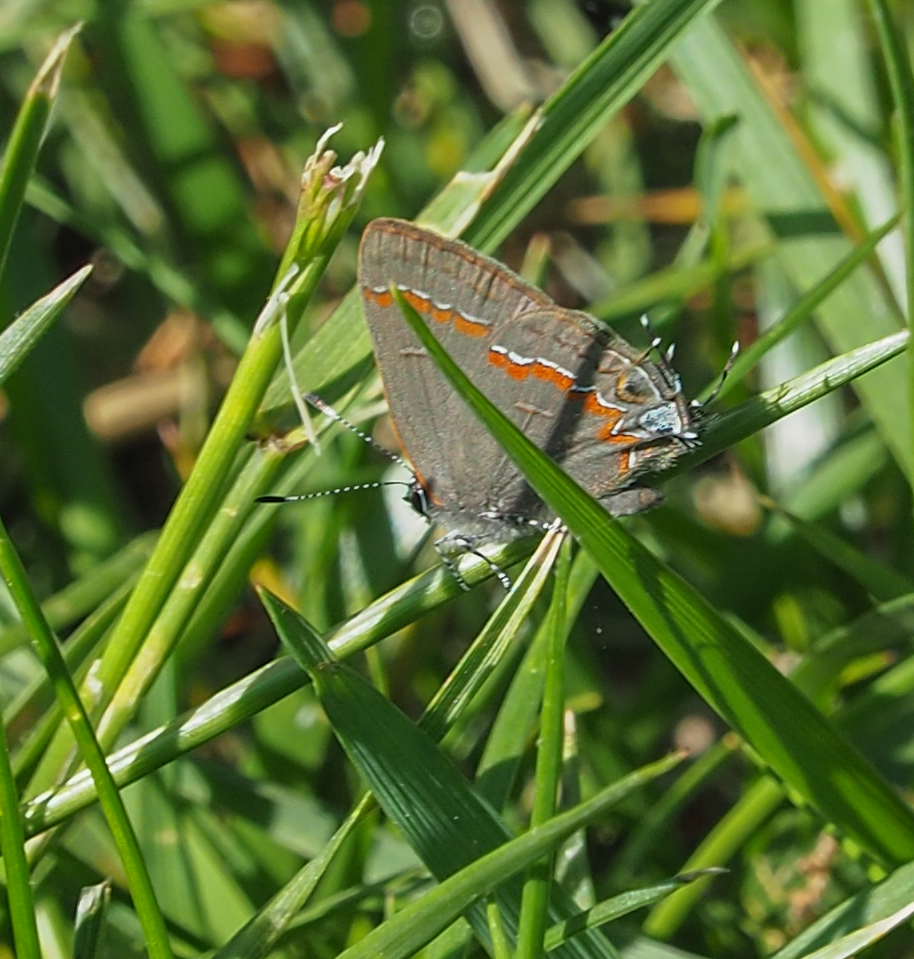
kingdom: Animalia
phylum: Arthropoda
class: Insecta
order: Lepidoptera
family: Lycaenidae
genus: Calycopis
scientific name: Calycopis cecrops
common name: Red-banded hairstreak
